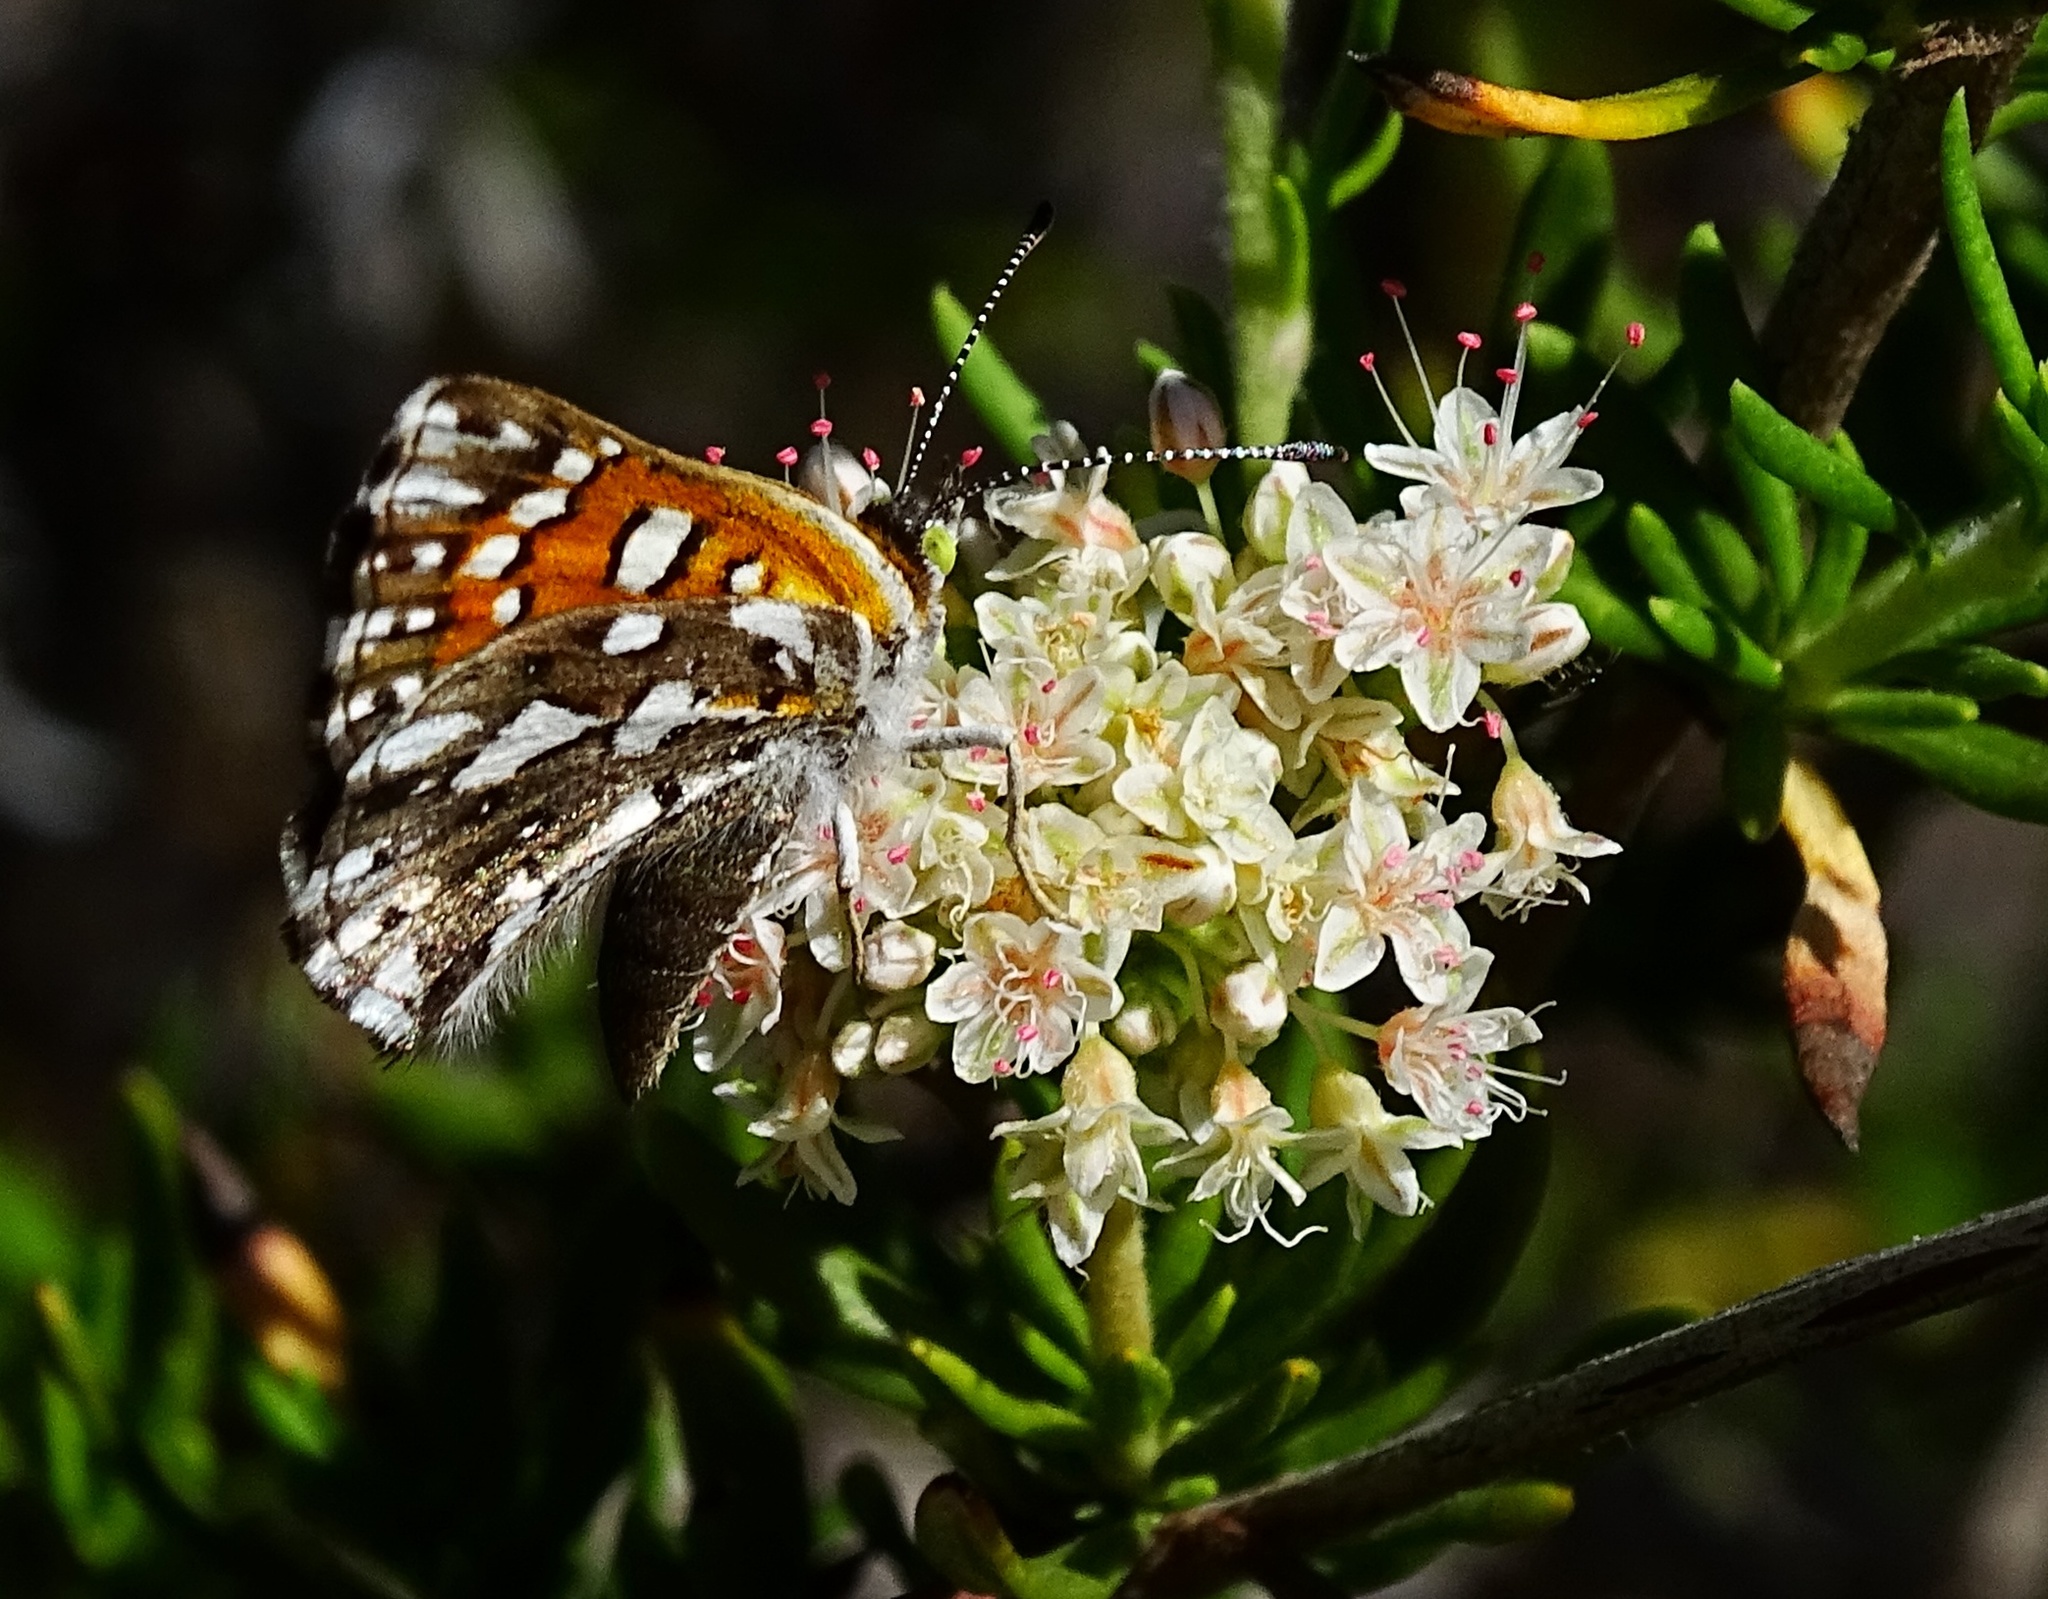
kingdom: Animalia
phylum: Arthropoda
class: Insecta
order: Lepidoptera
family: Riodinidae
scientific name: Riodinidae
